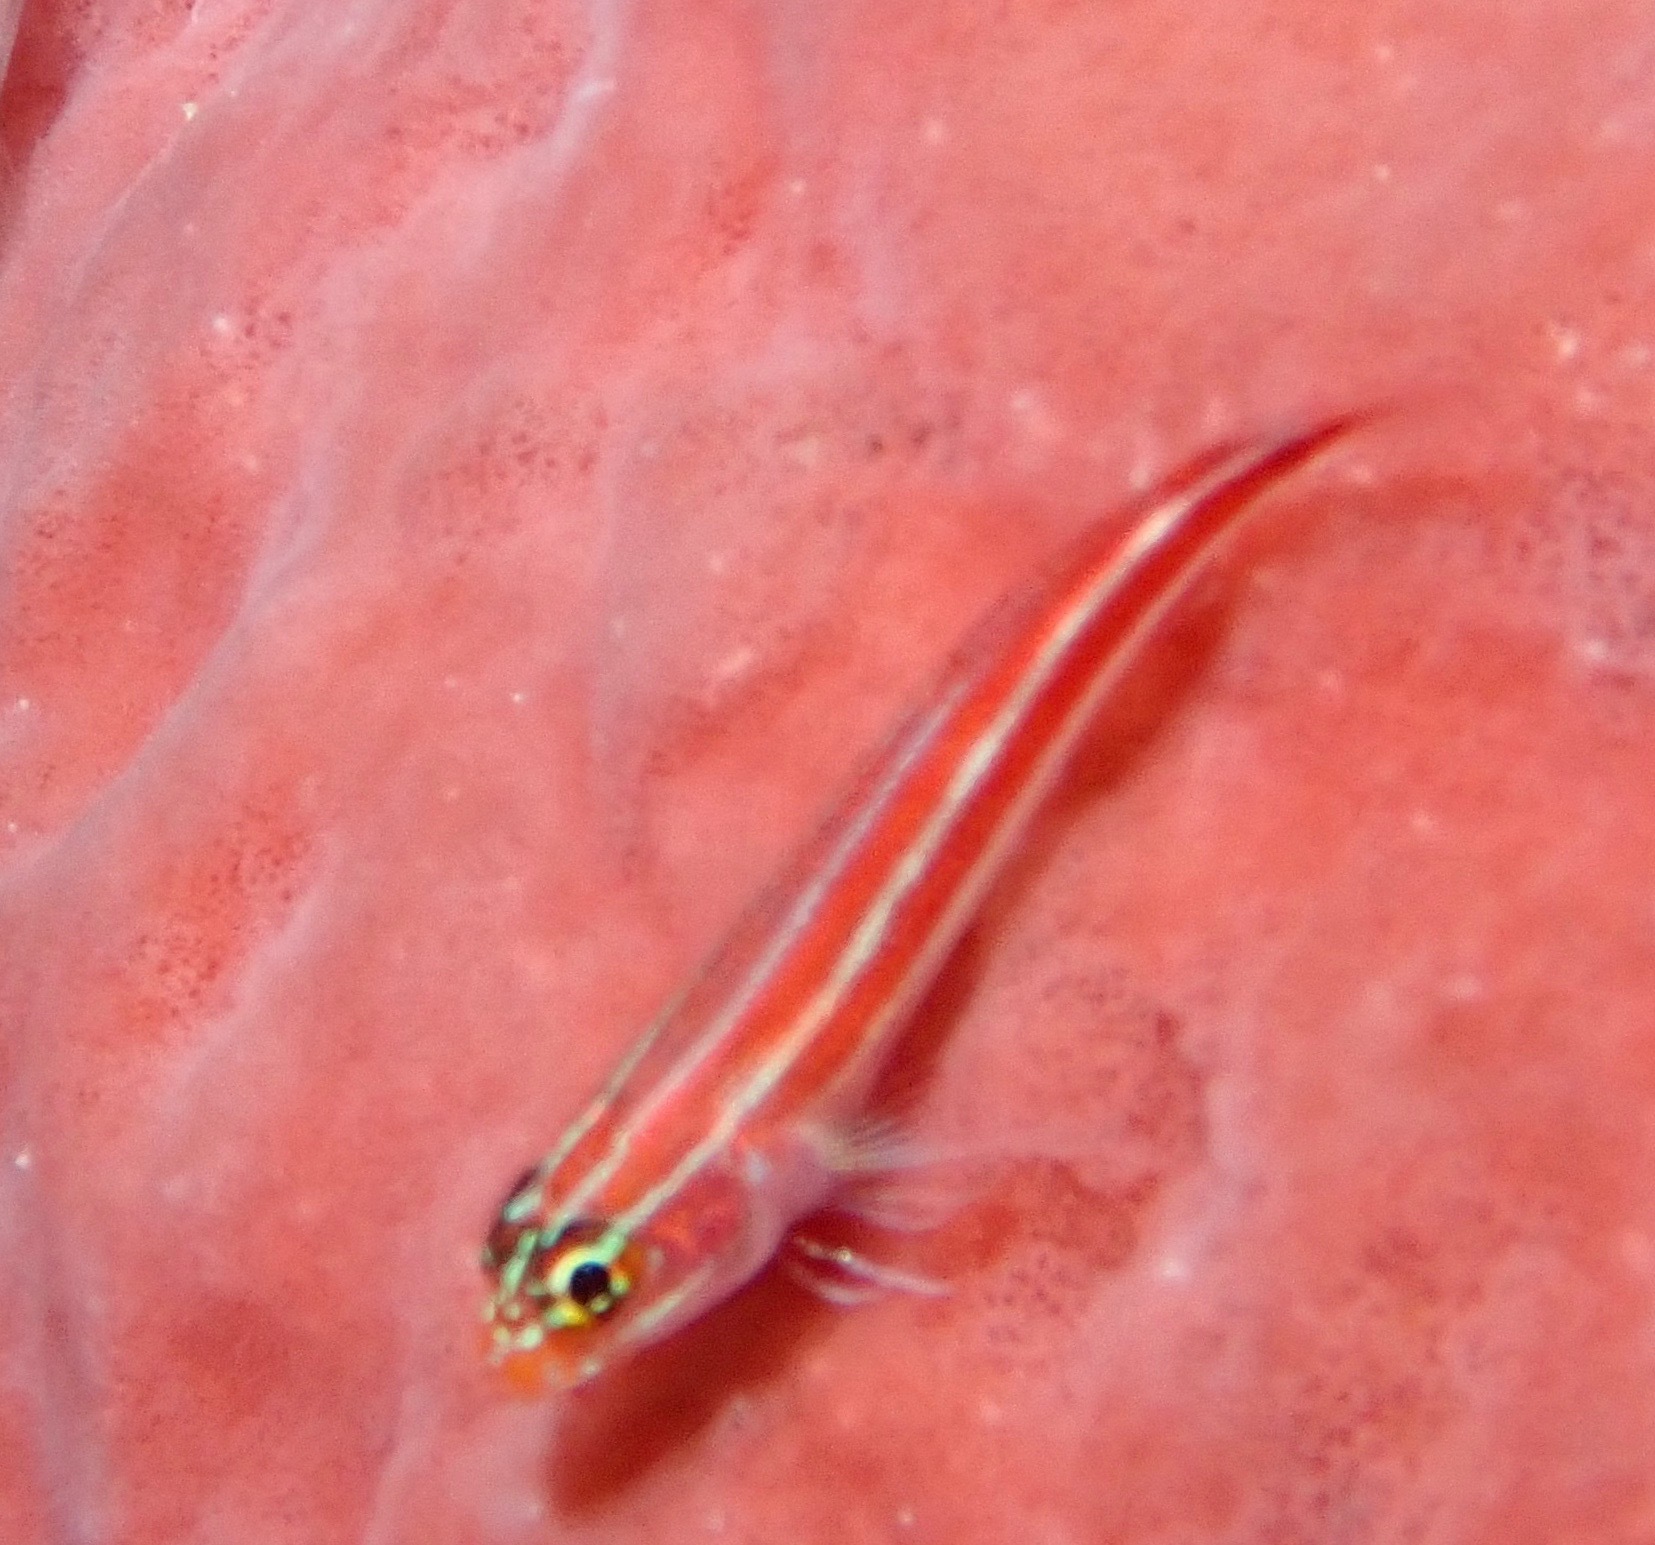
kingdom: Animalia
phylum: Chordata
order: Perciformes
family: Tripterygiidae
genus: Helcogramma
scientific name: Helcogramma striata
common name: Striped threefin
